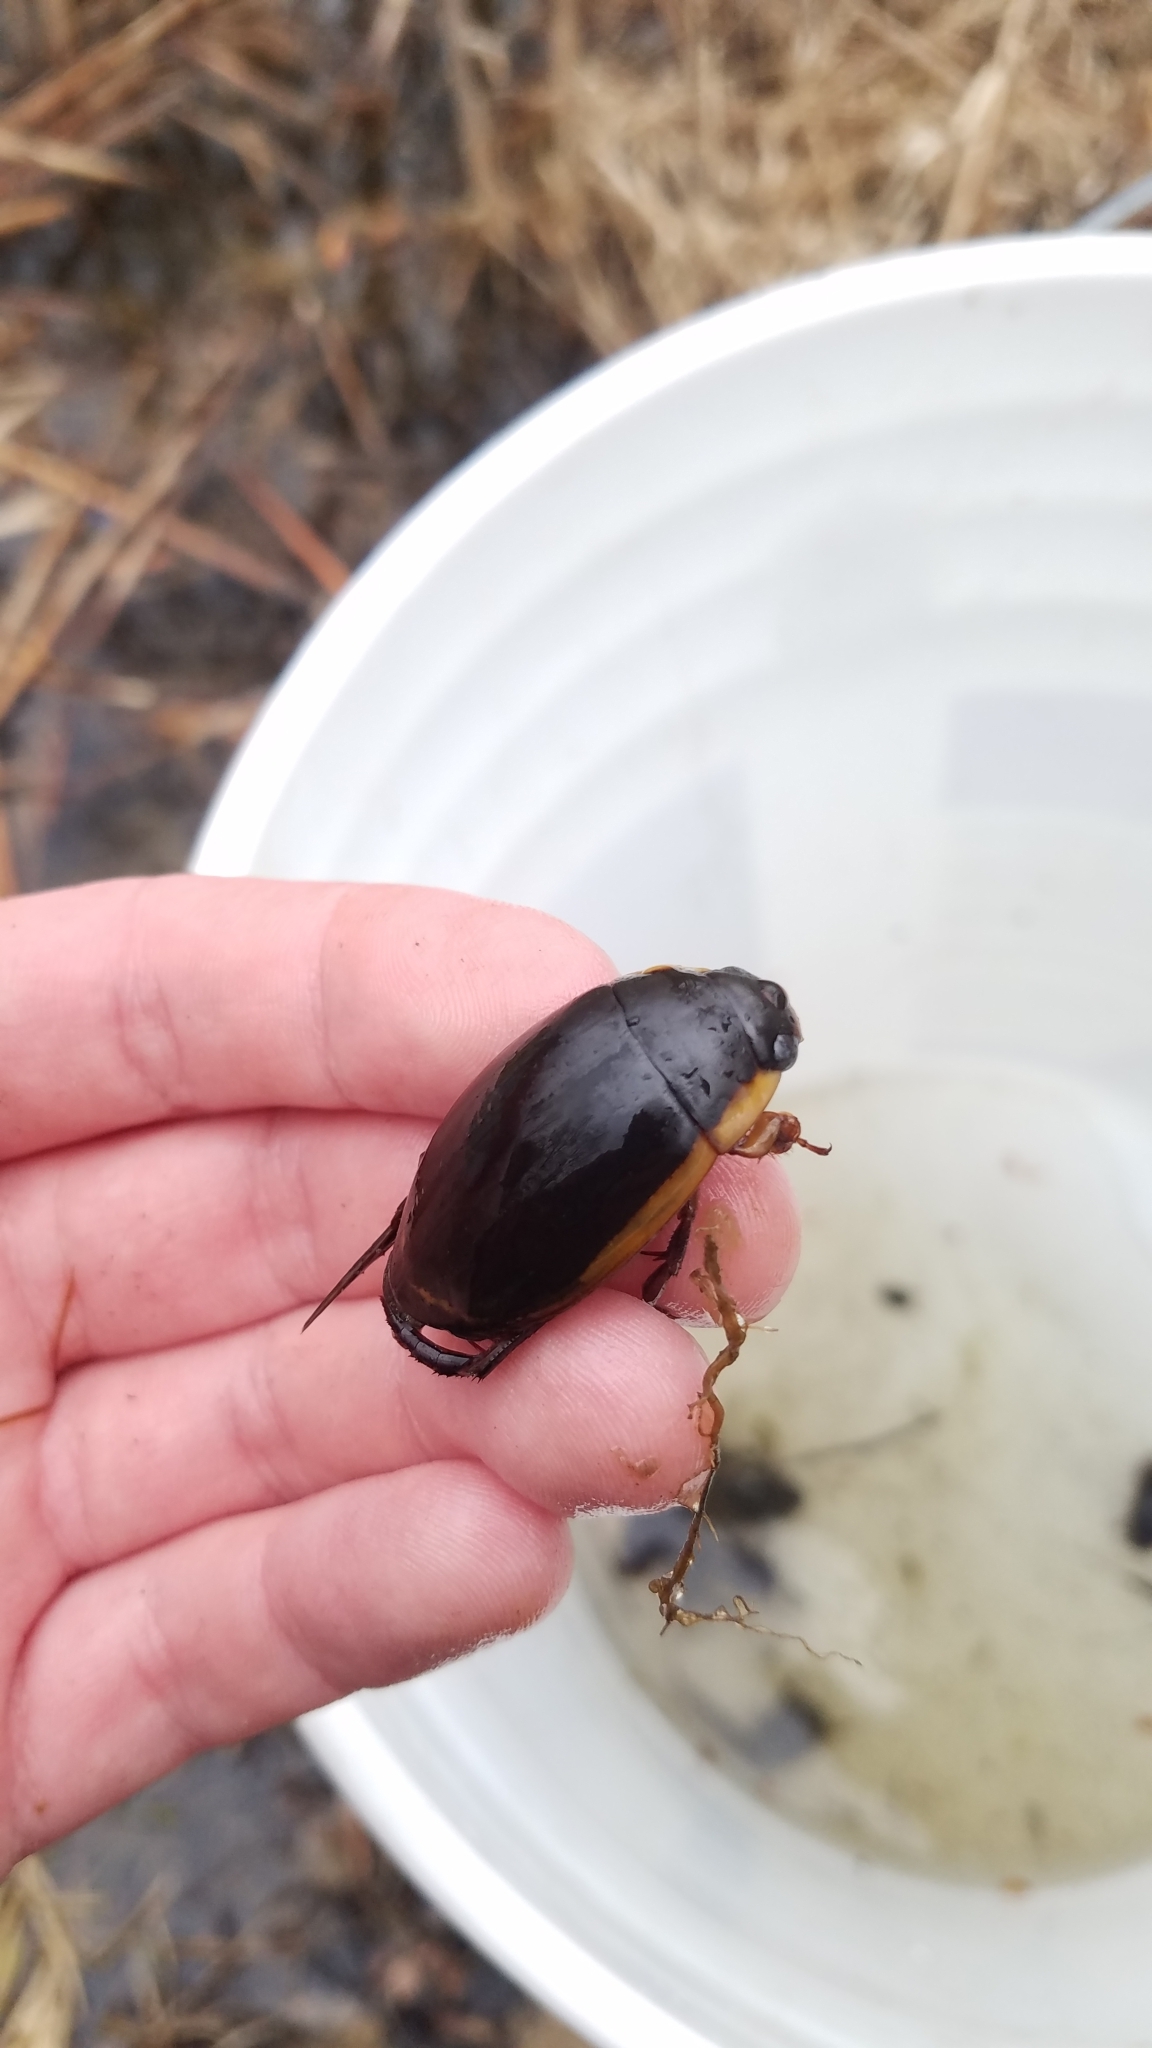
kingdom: Animalia
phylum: Arthropoda
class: Insecta
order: Coleoptera
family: Dytiscidae
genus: Dytiscus
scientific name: Dytiscus verticalis
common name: Vertical diving beetle
